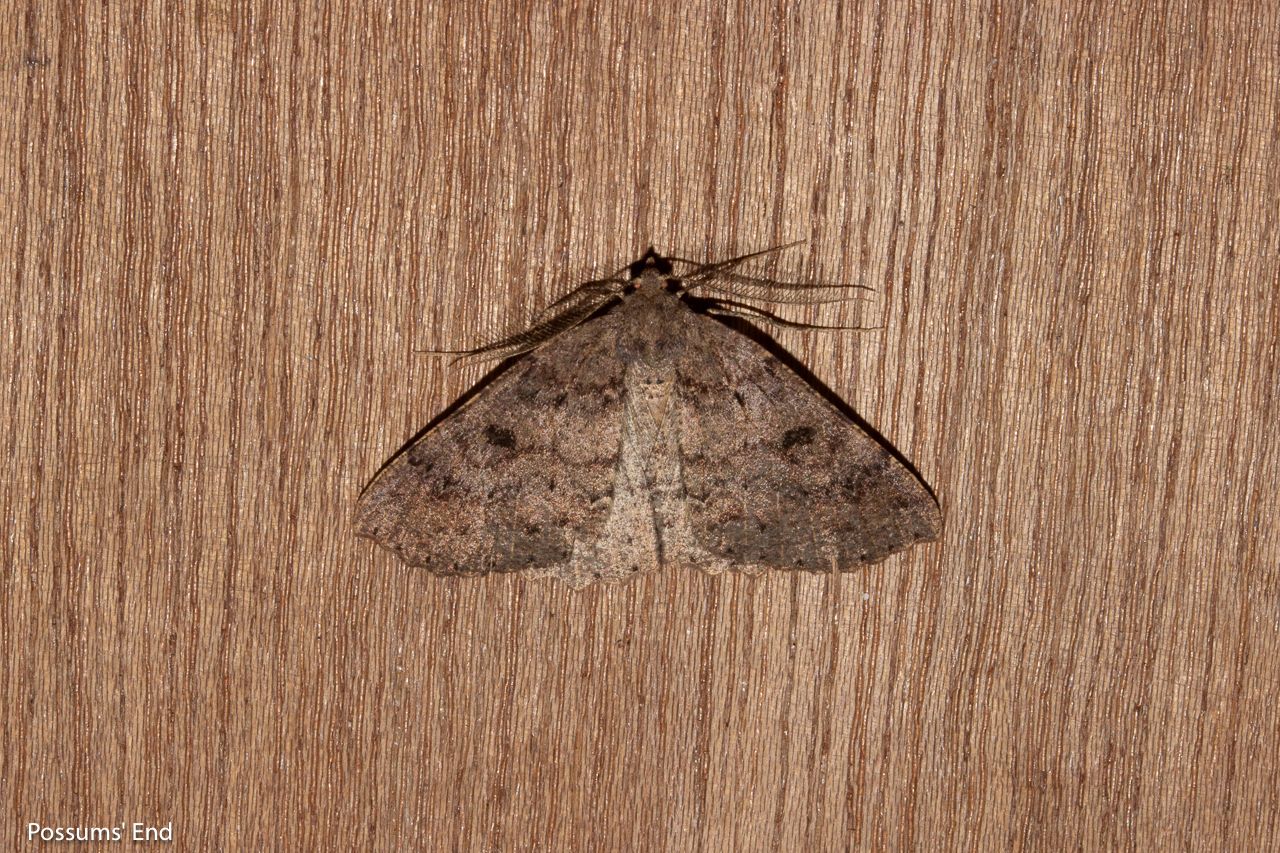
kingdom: Animalia
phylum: Arthropoda
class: Insecta
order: Lepidoptera
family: Geometridae
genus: Cleora
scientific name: Cleora scriptaria
